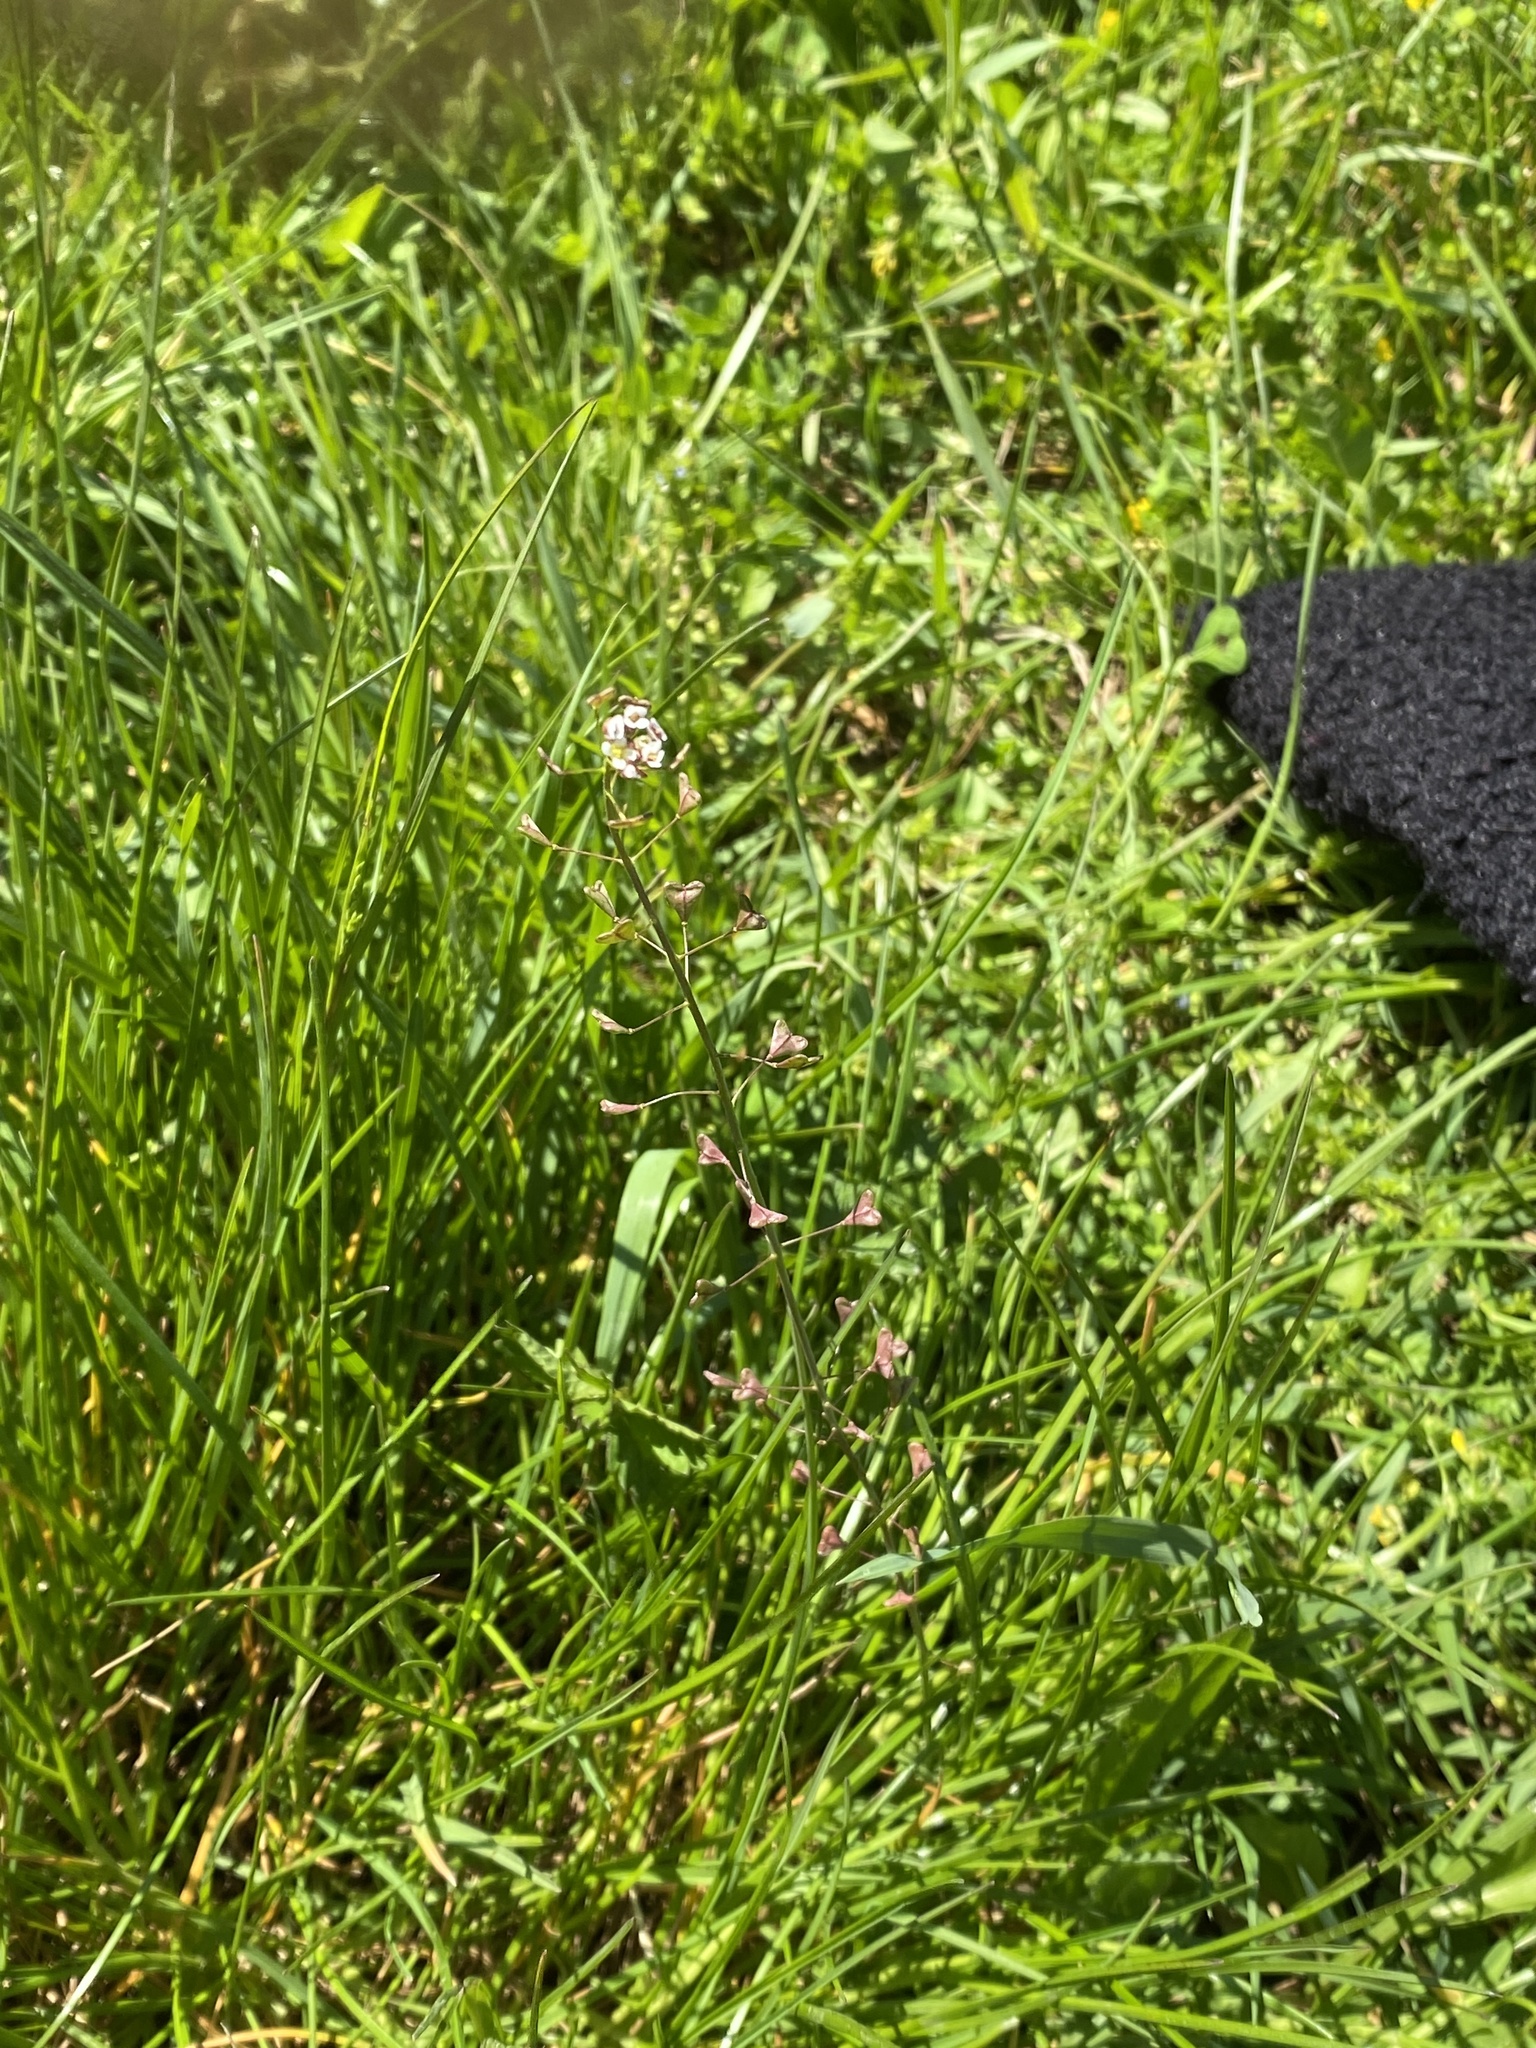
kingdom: Plantae
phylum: Tracheophyta
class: Magnoliopsida
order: Brassicales
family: Brassicaceae
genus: Capsella
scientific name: Capsella bursa-pastoris
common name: Shepherd's purse
